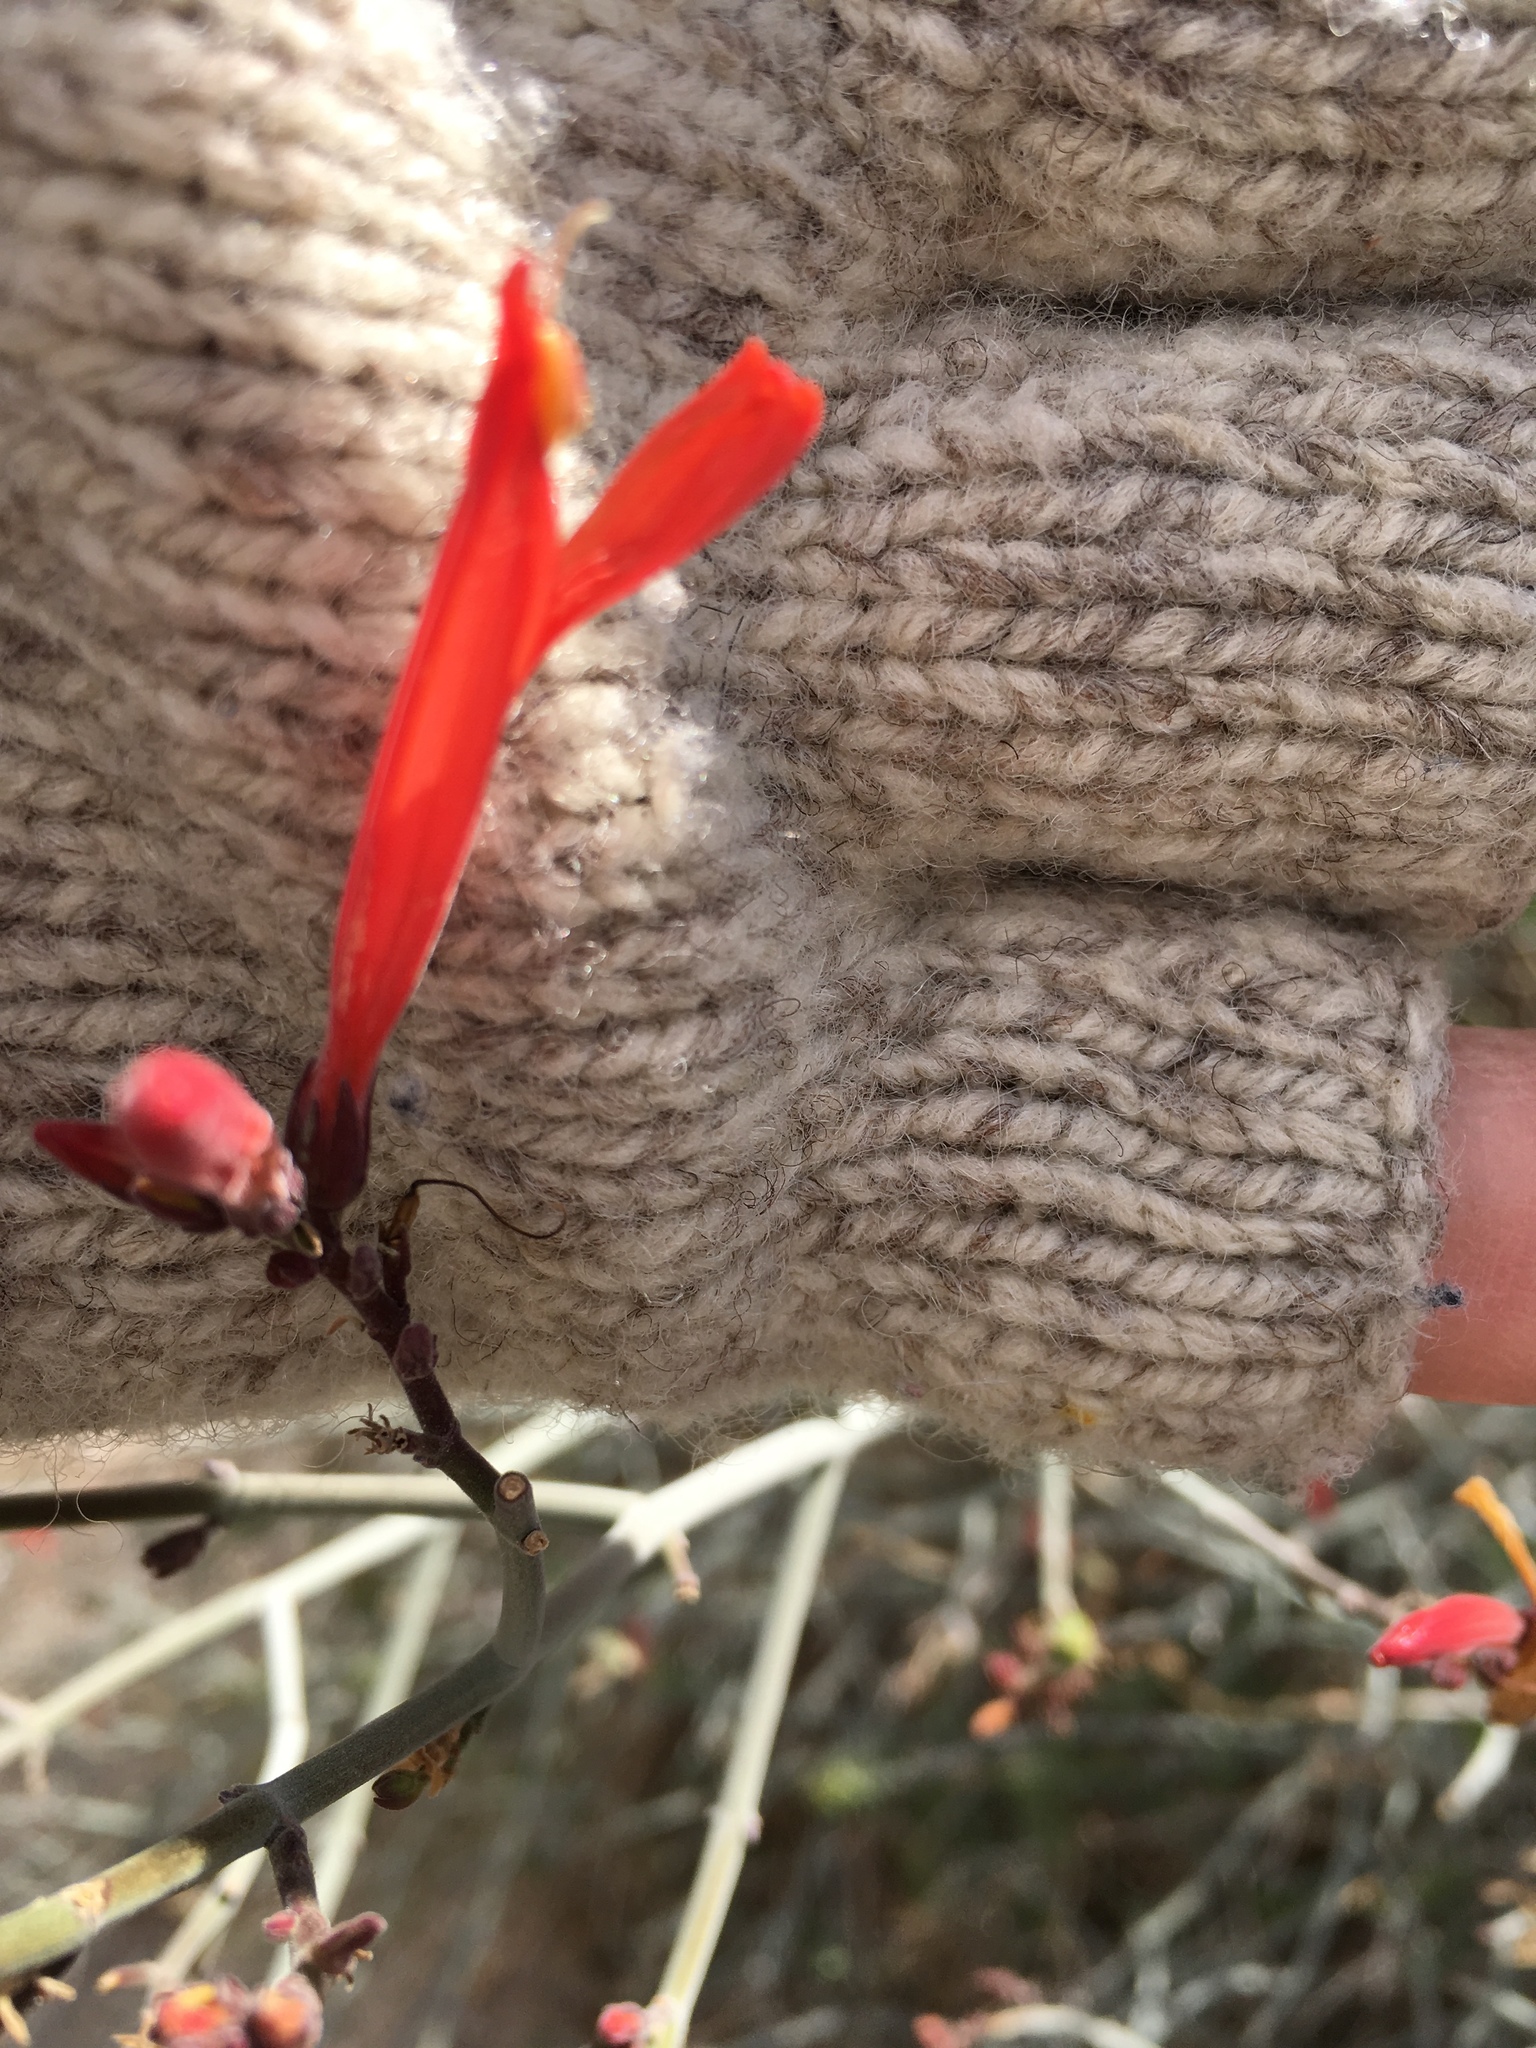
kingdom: Plantae
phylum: Tracheophyta
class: Magnoliopsida
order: Lamiales
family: Acanthaceae
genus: Justicia
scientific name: Justicia californica
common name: Chuparosa-honeysuckle
